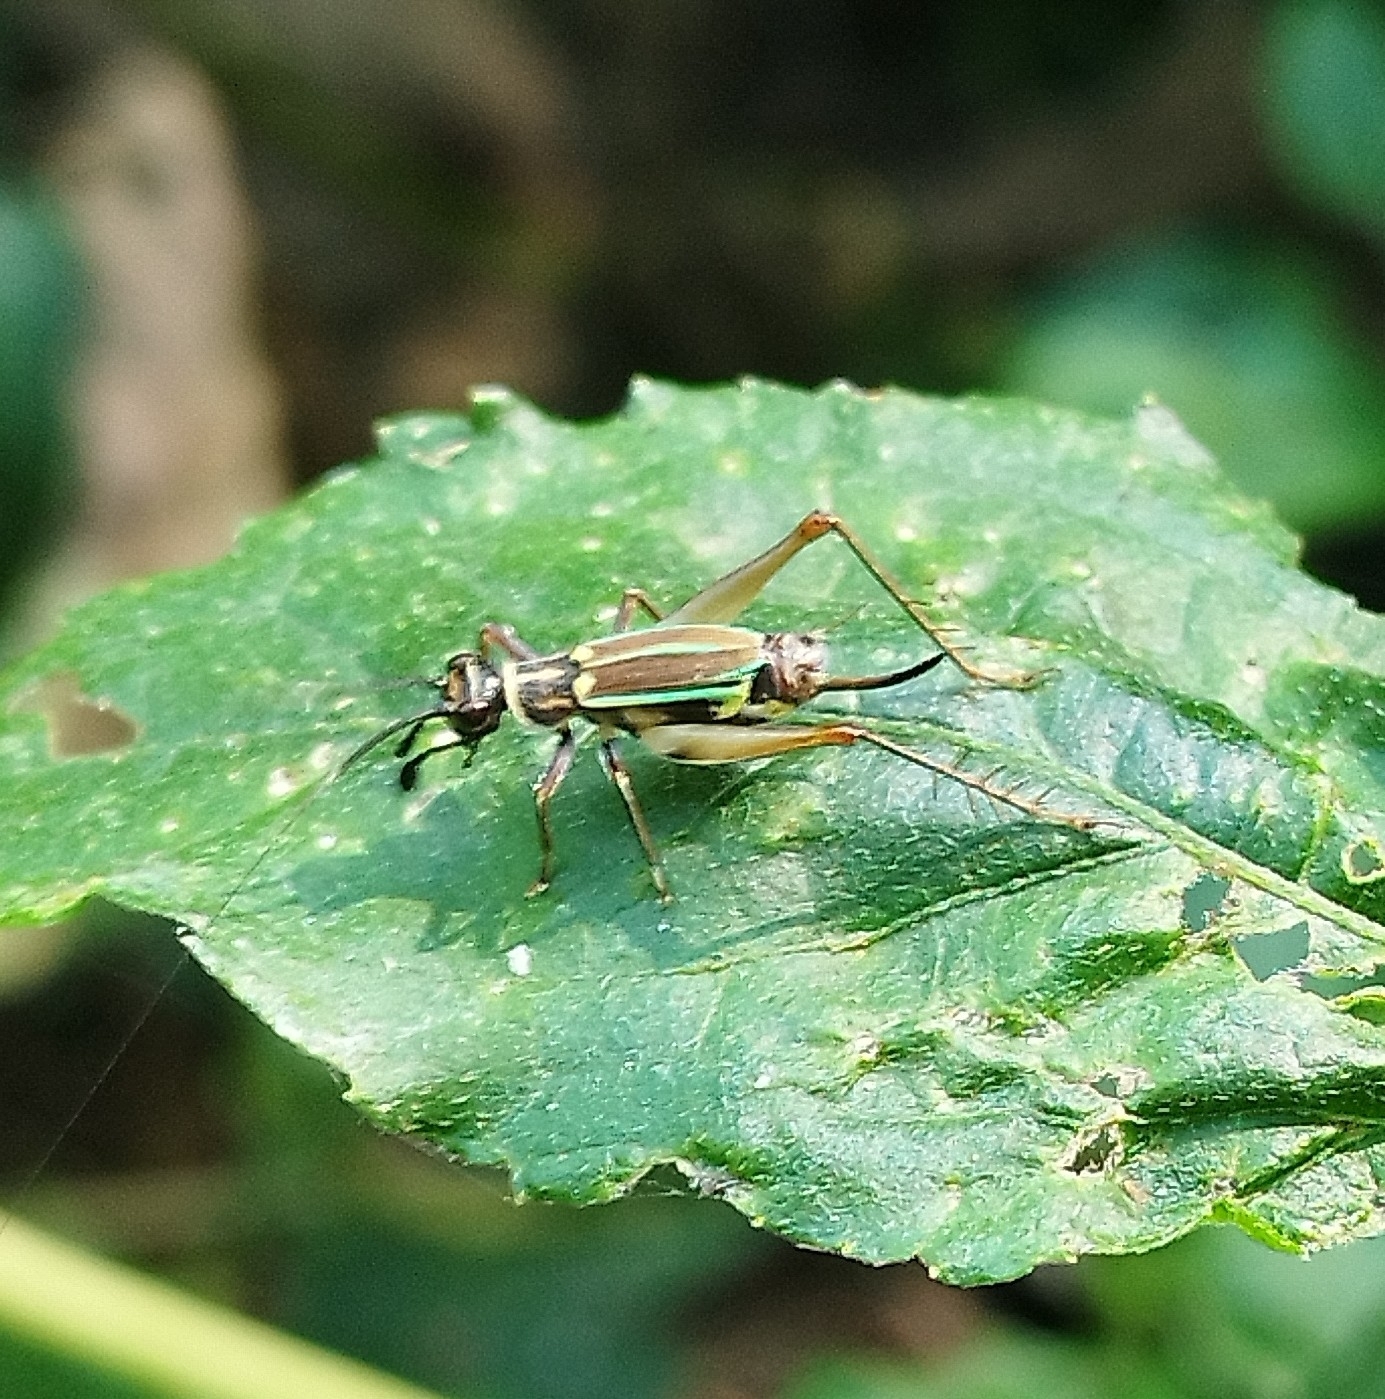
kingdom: Animalia
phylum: Arthropoda
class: Insecta
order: Orthoptera
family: Trigonidiidae
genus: Phylloscyrtus
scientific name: Phylloscyrtus amoenus
